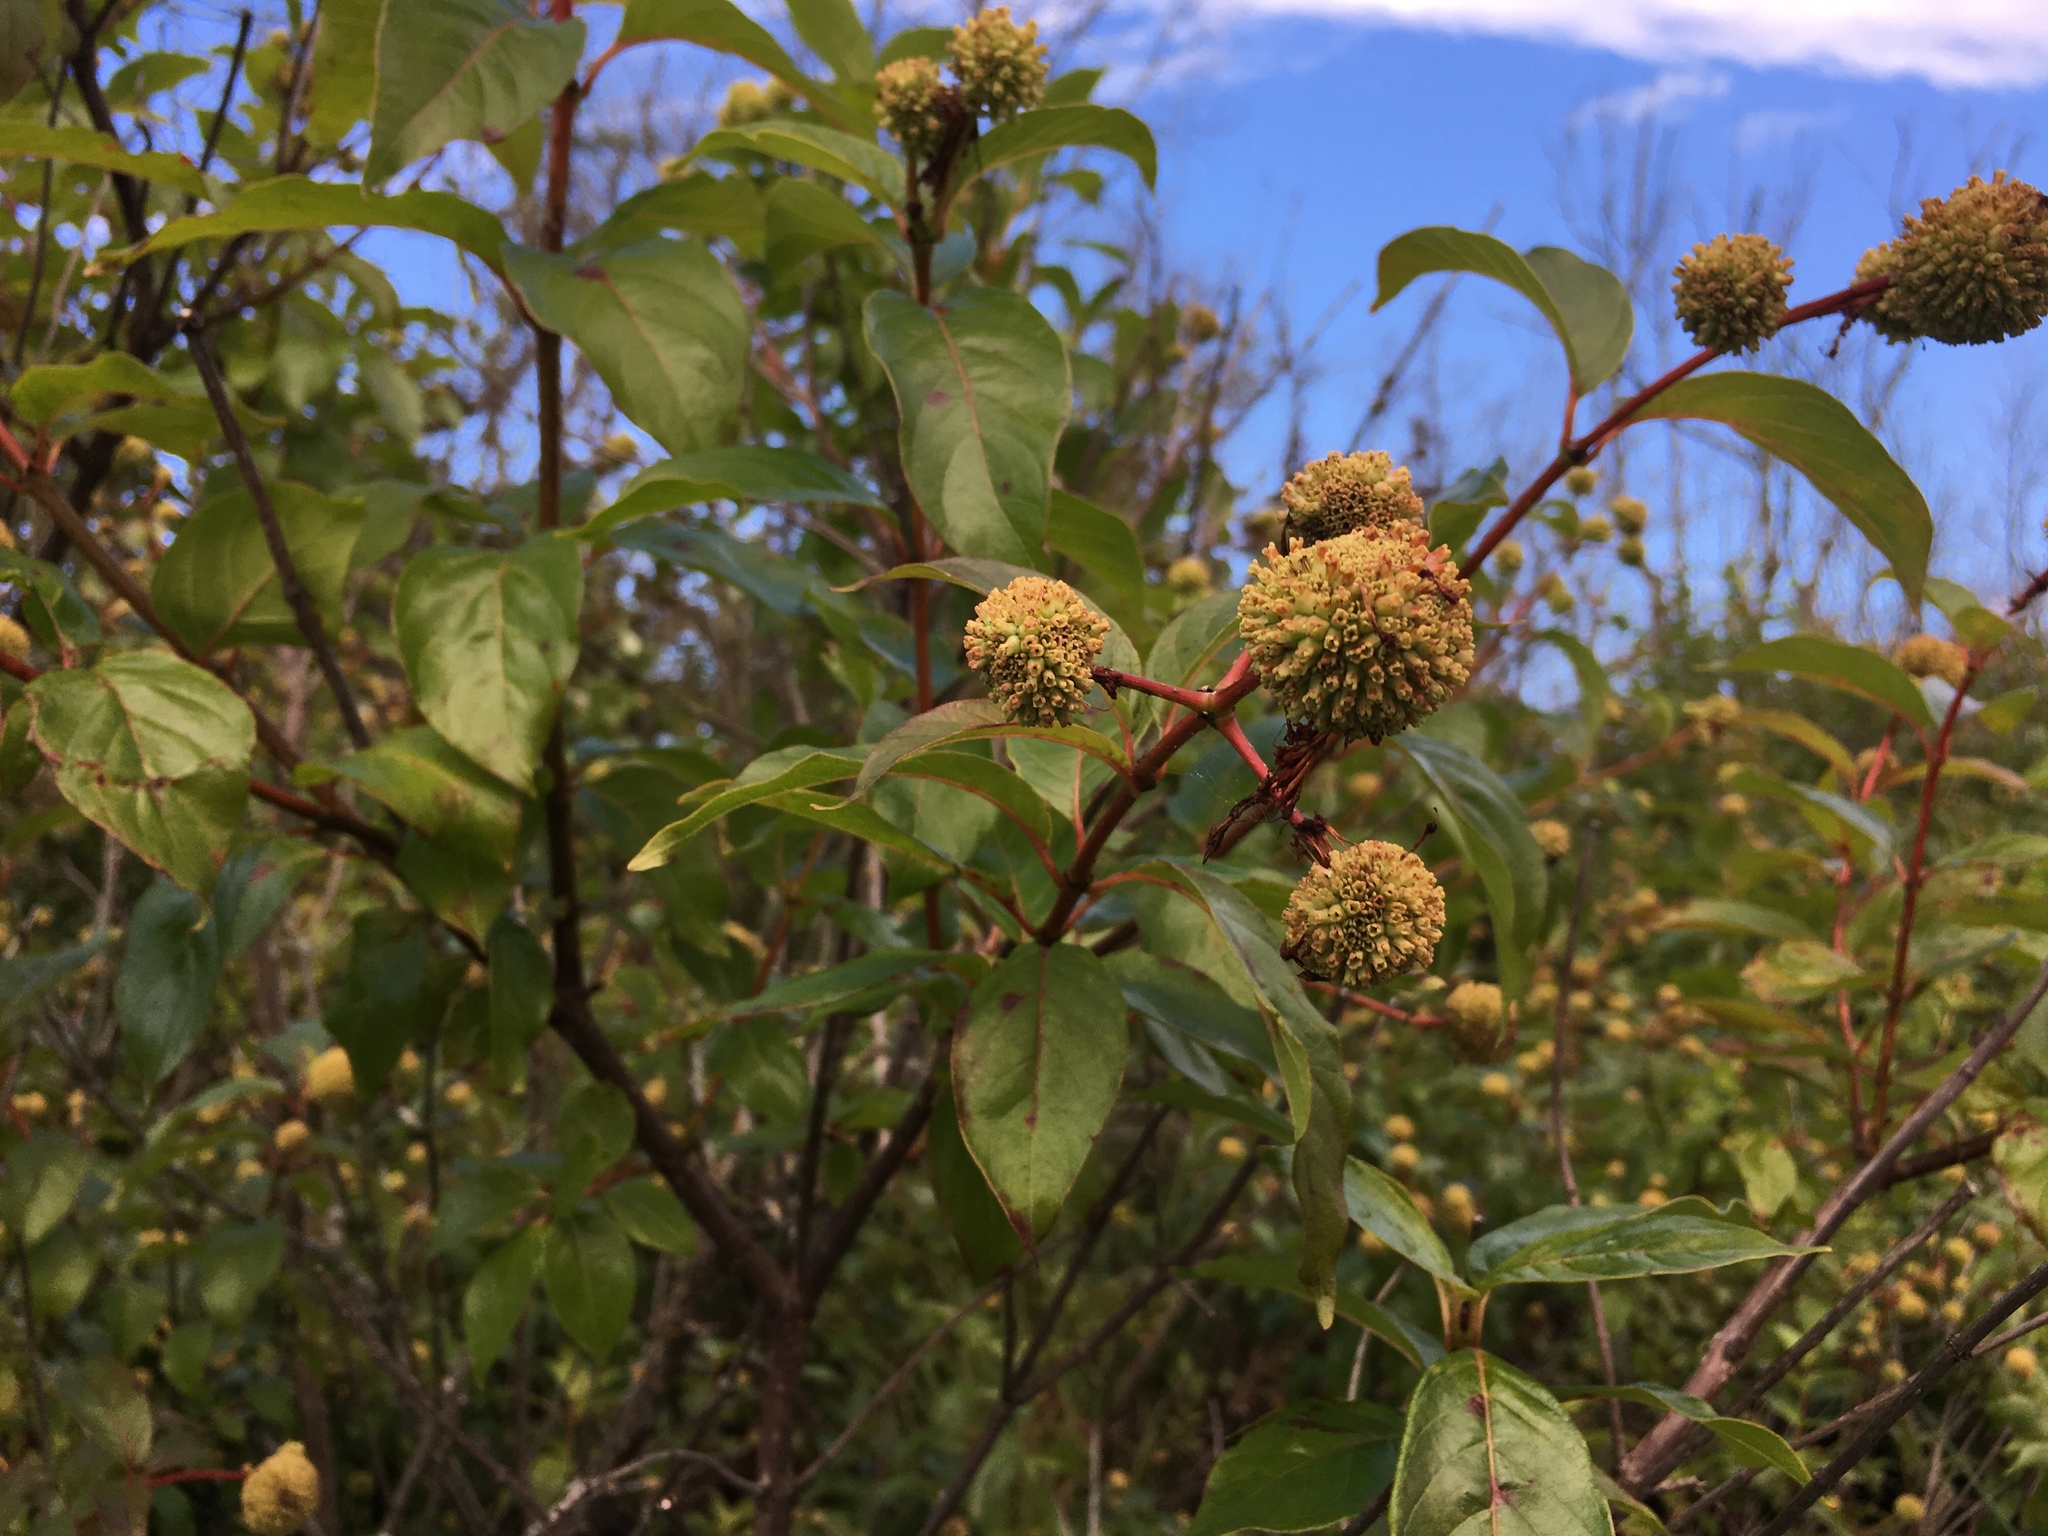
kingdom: Plantae
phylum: Tracheophyta
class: Magnoliopsida
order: Gentianales
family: Rubiaceae
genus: Cephalanthus
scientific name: Cephalanthus occidentalis
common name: Button-willow
